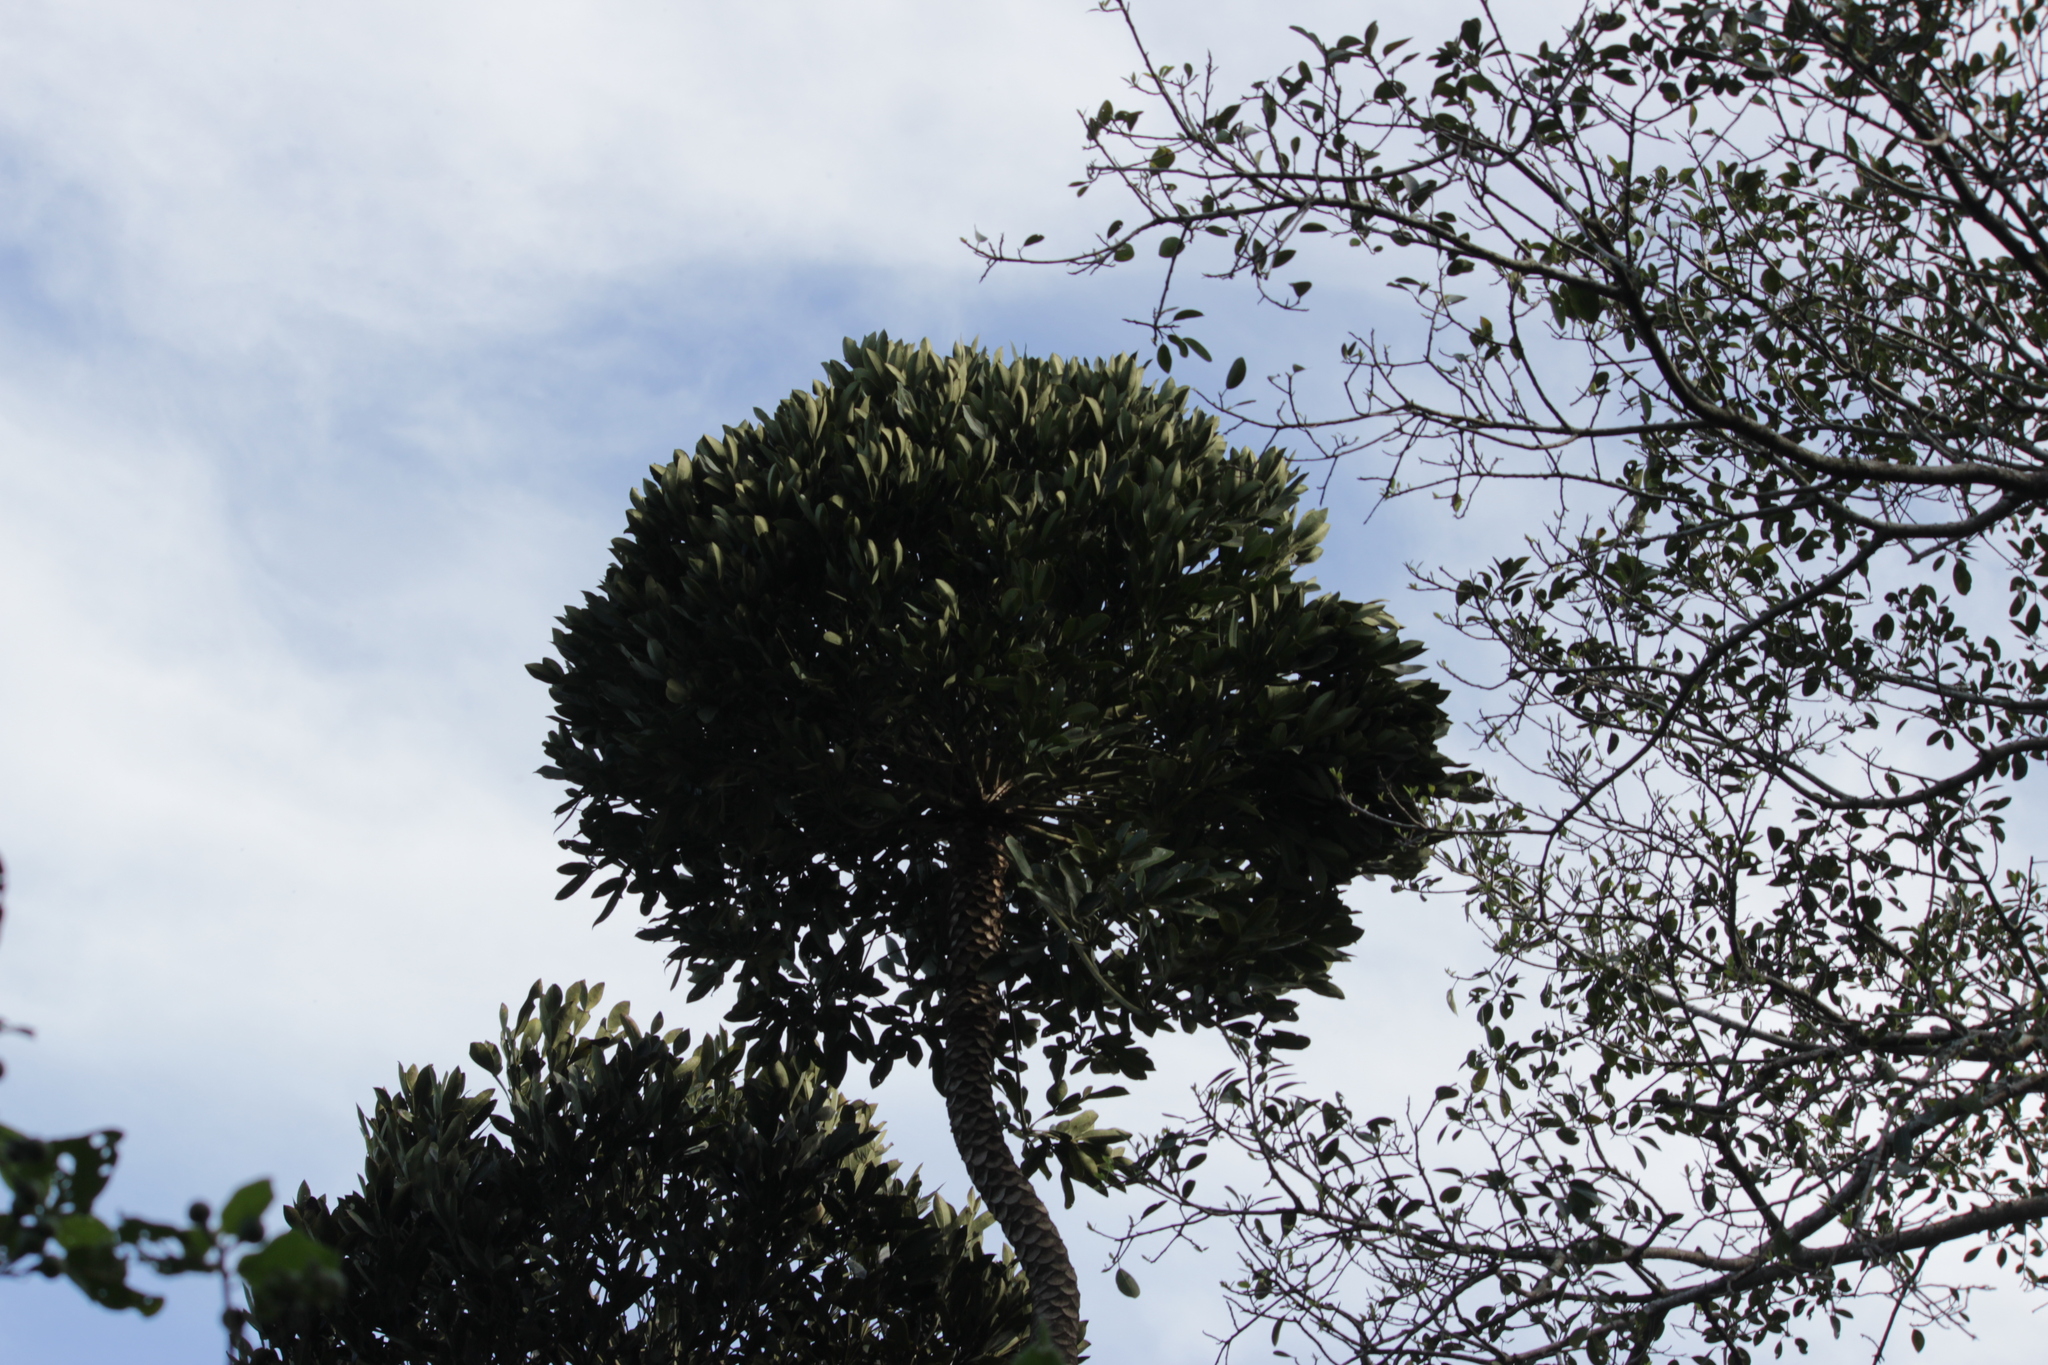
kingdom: Plantae
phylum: Tracheophyta
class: Magnoliopsida
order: Apiales
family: Araliaceae
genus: Cussonia
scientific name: Cussonia sphaerocephala
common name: Forest cabbage-tree
